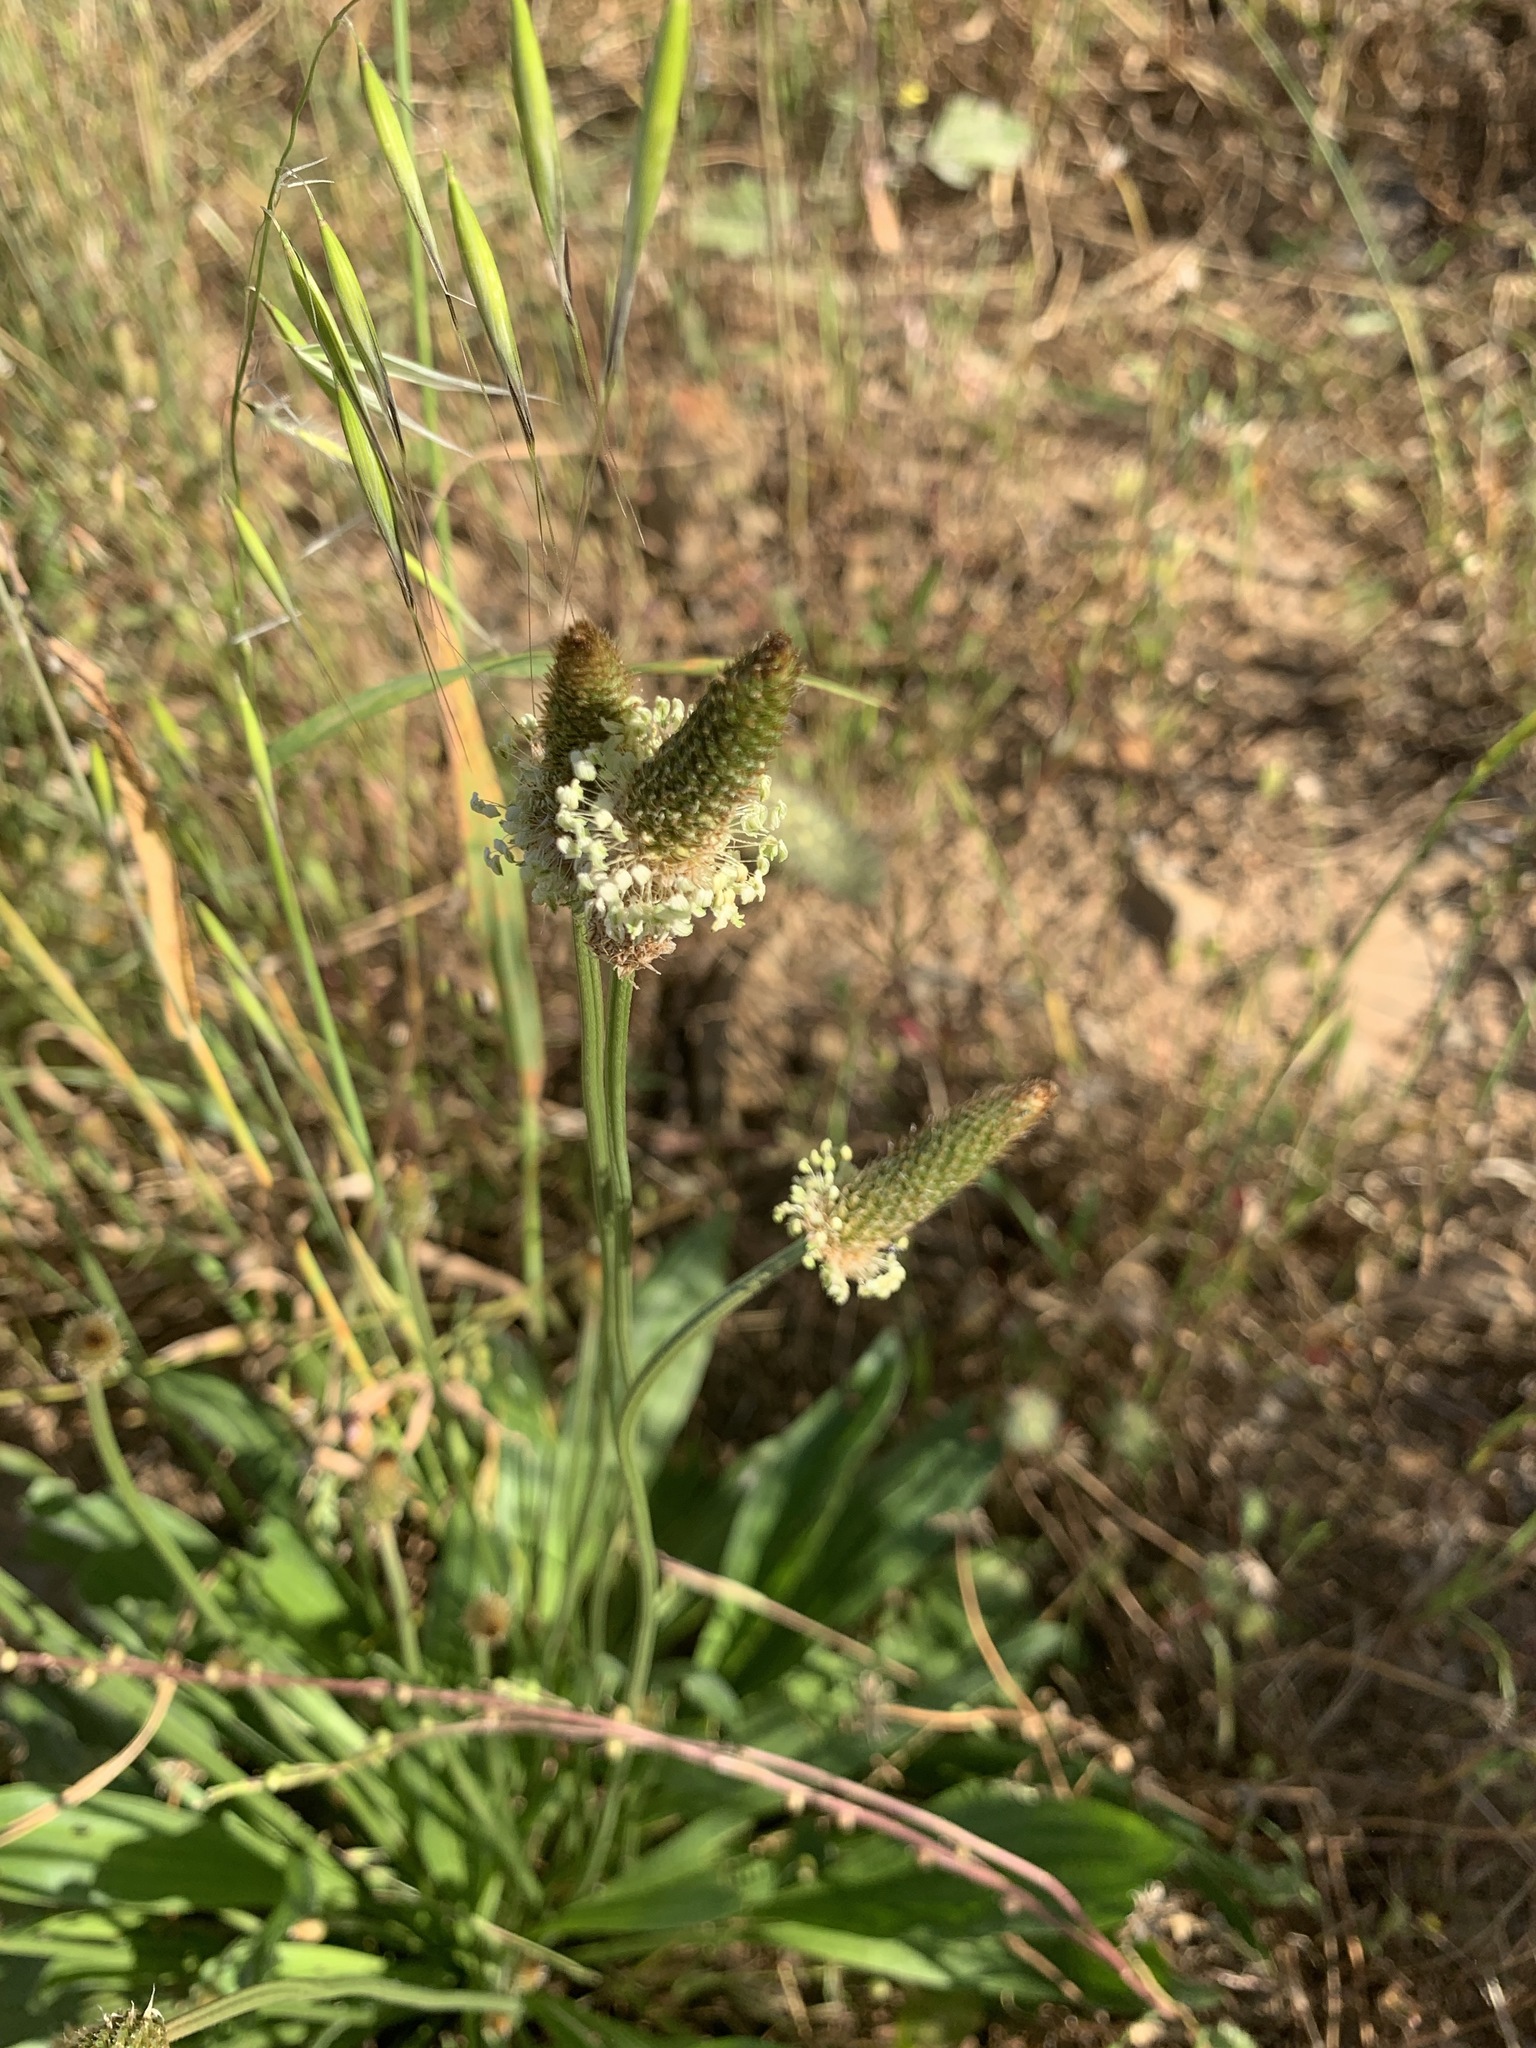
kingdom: Plantae
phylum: Tracheophyta
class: Magnoliopsida
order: Lamiales
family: Plantaginaceae
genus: Plantago
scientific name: Plantago lanceolata
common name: Ribwort plantain
